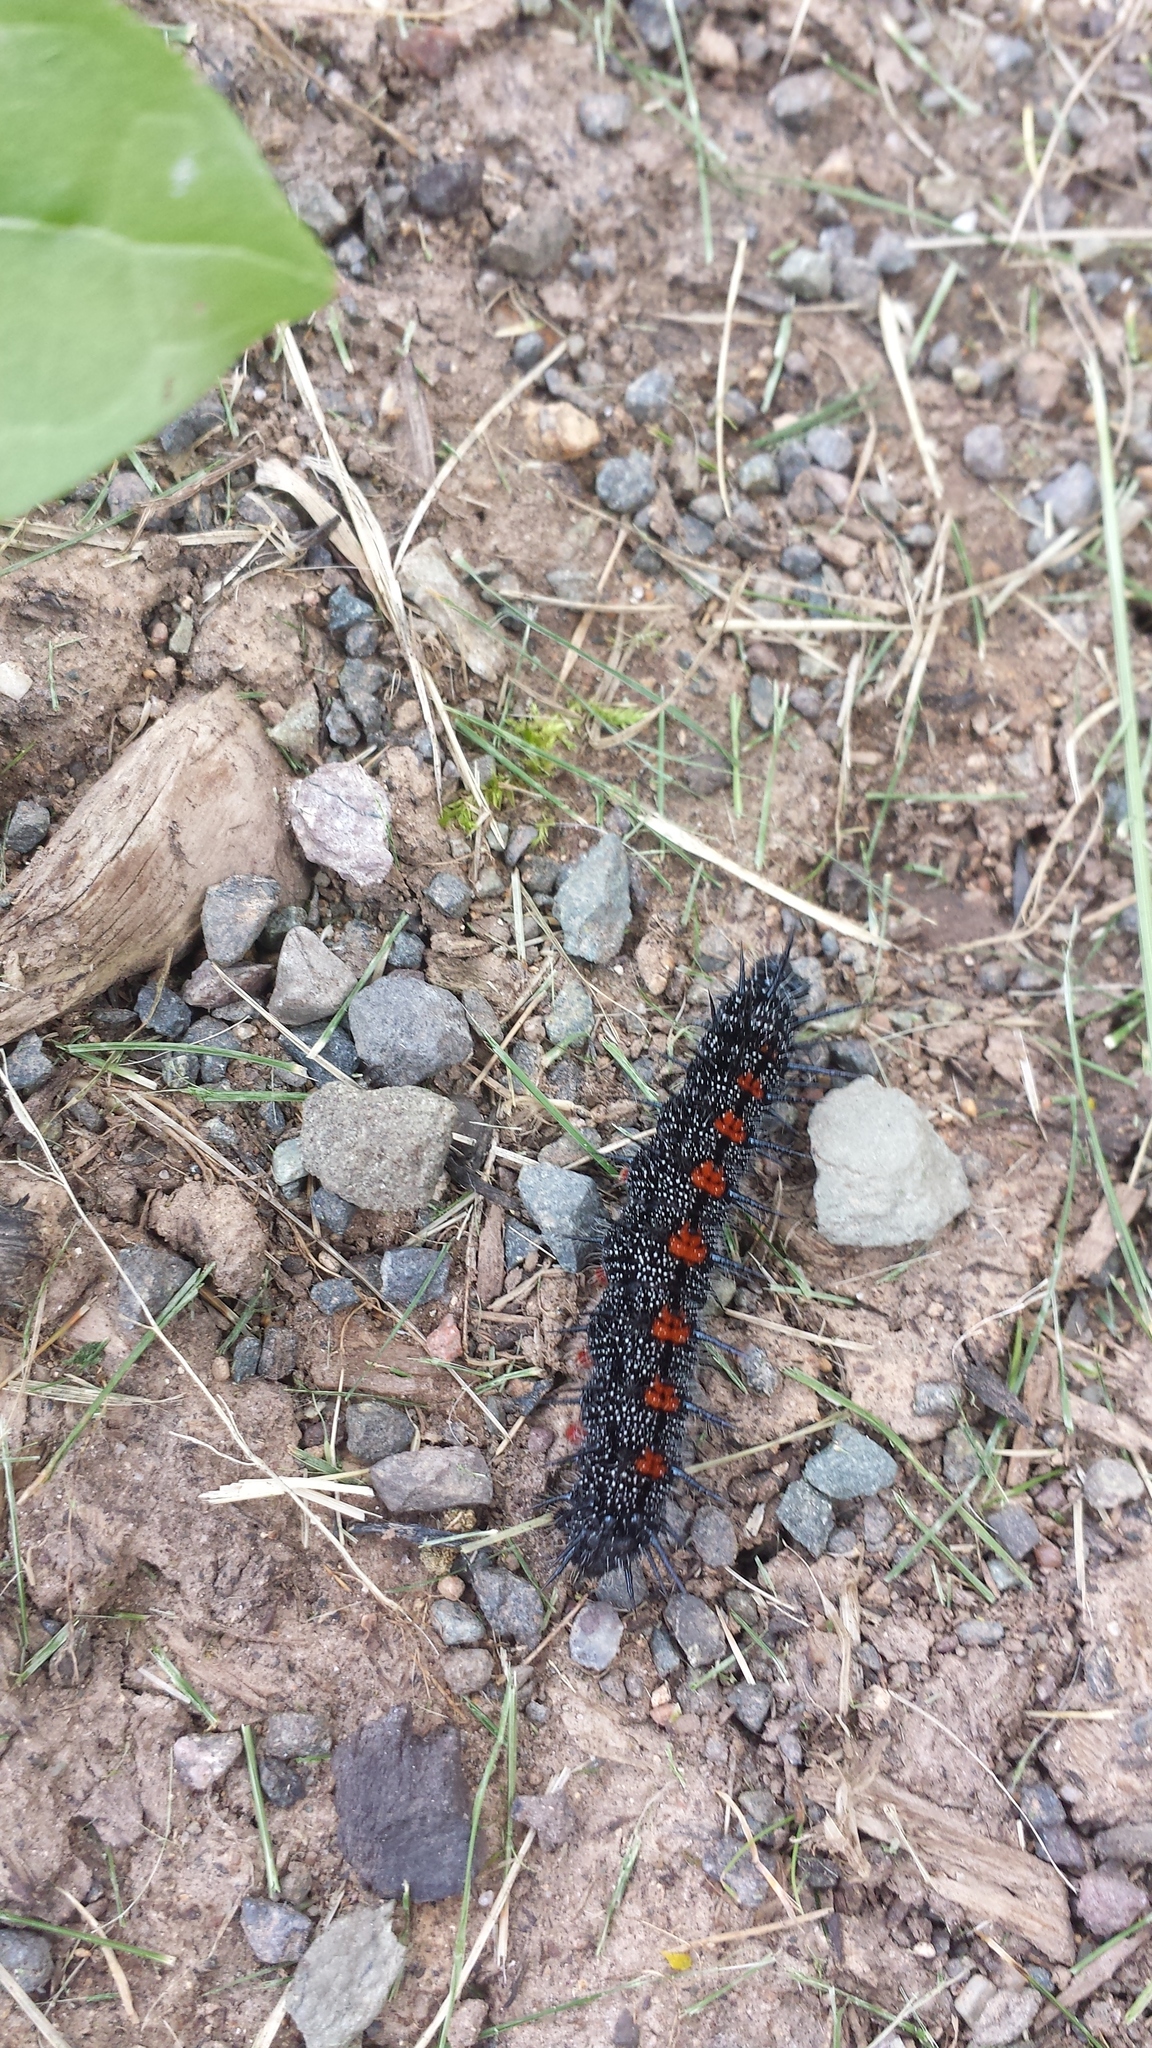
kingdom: Animalia
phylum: Arthropoda
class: Insecta
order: Lepidoptera
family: Nymphalidae
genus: Nymphalis
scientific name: Nymphalis antiopa
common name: Camberwell beauty
